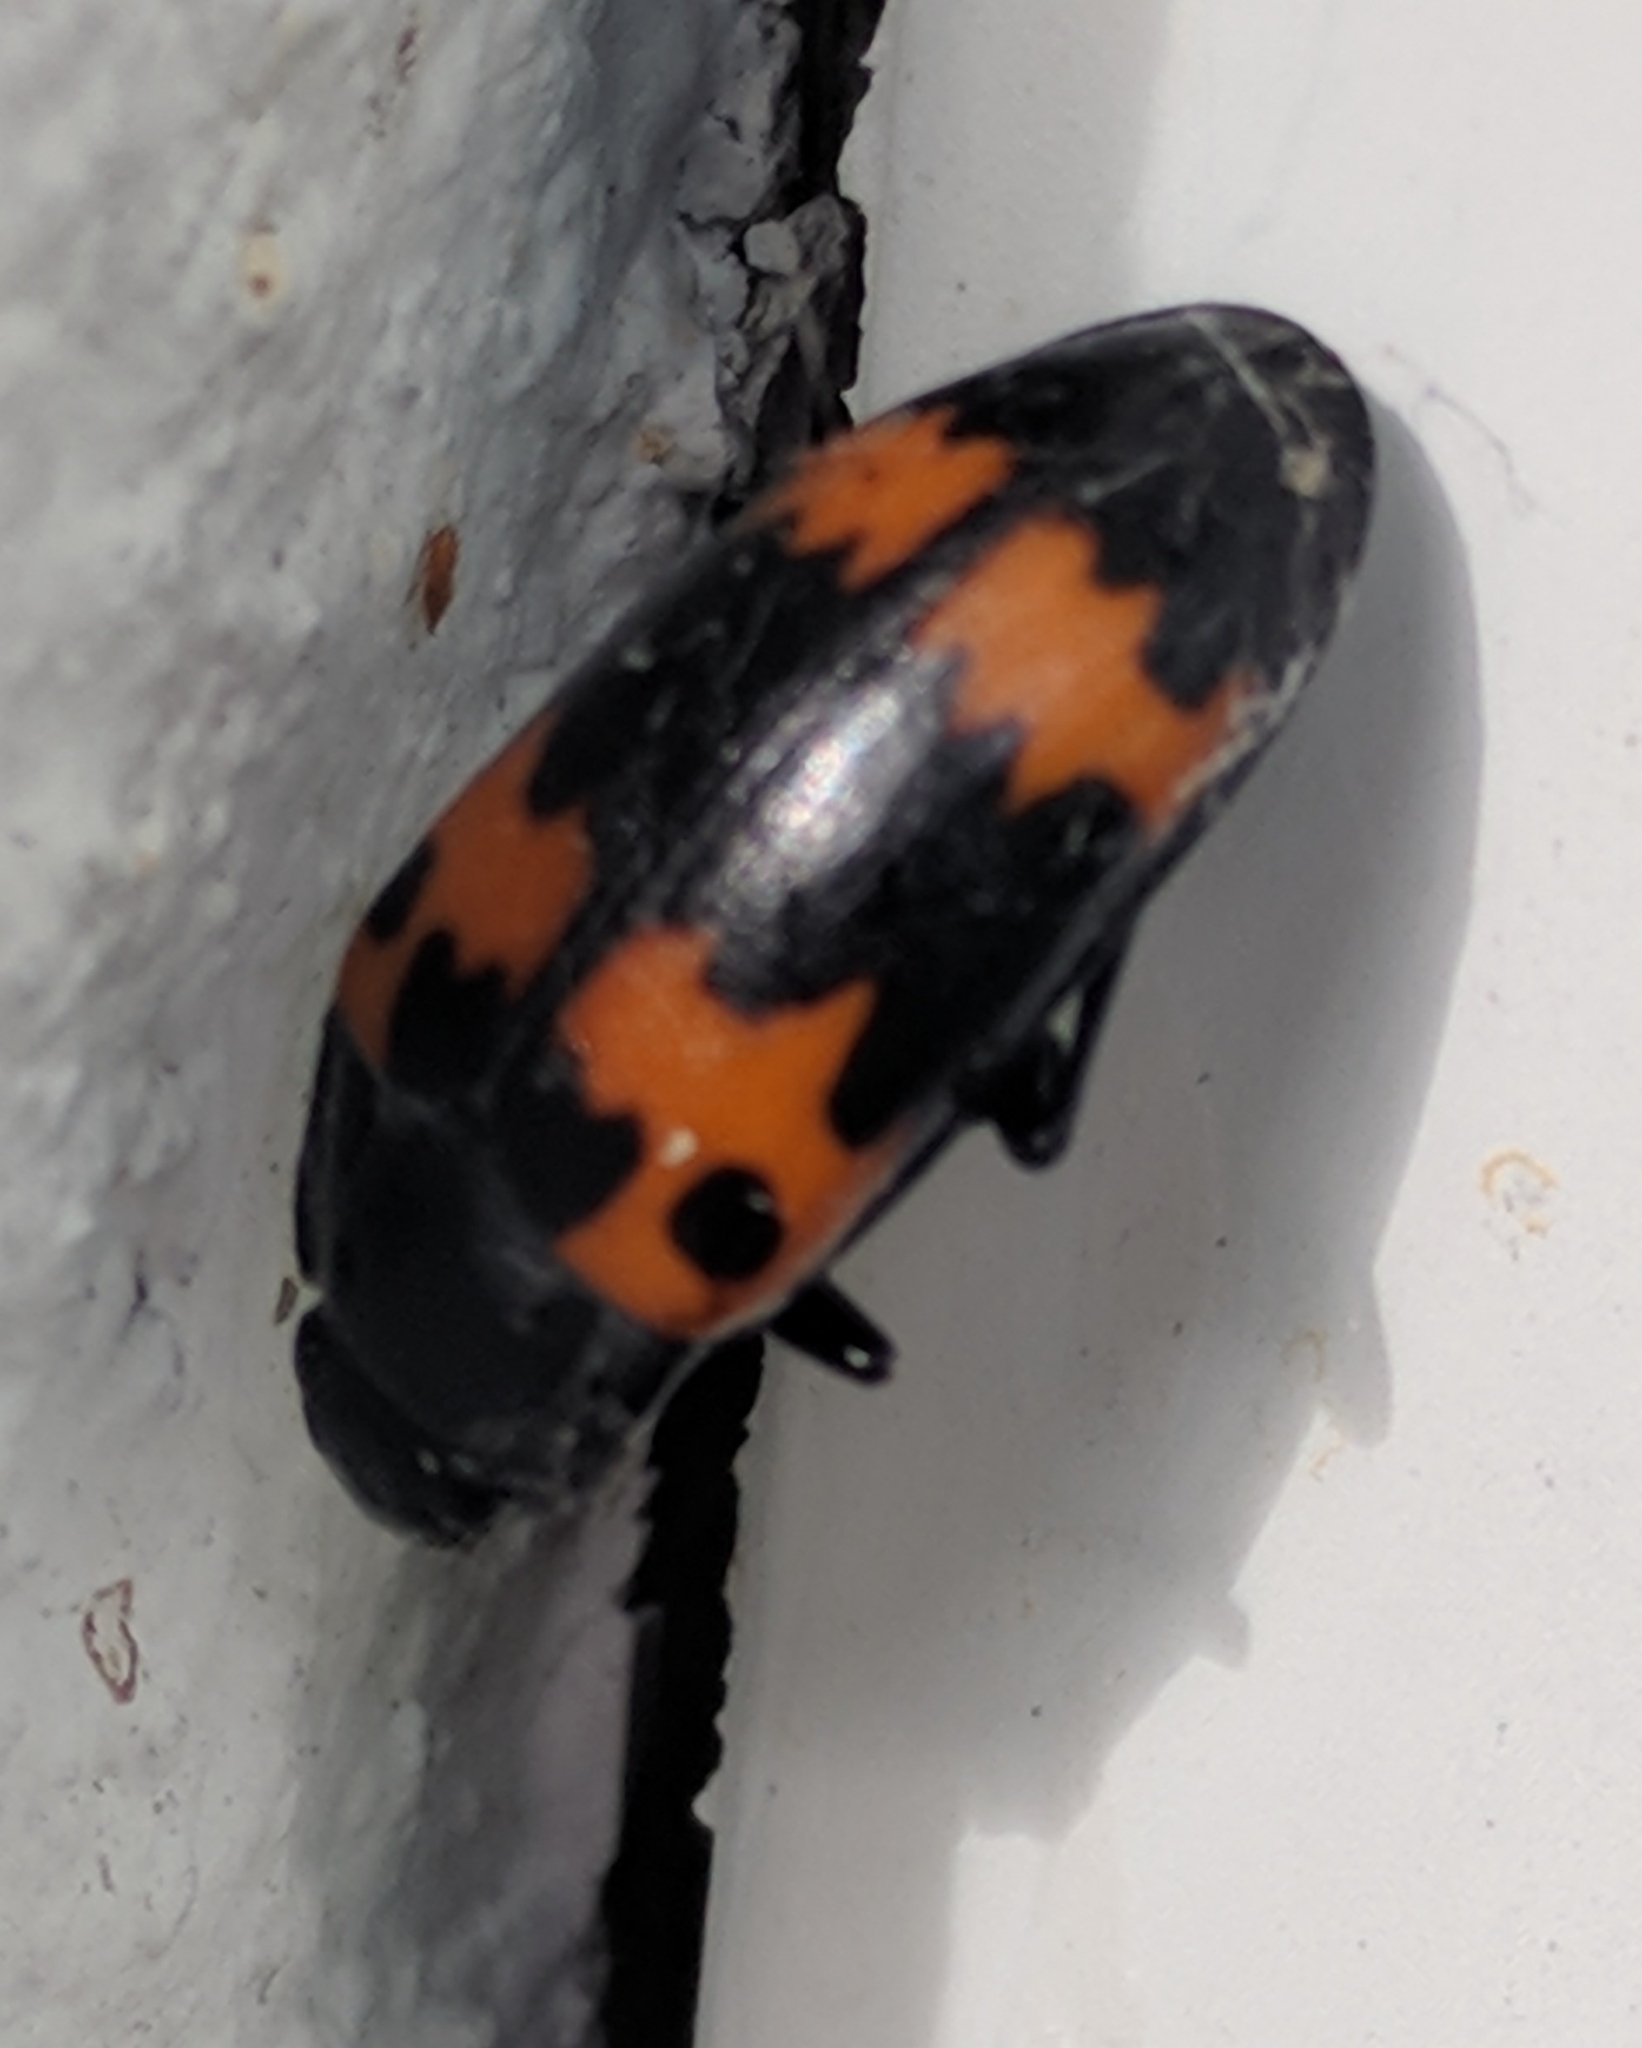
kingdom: Animalia
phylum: Arthropoda
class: Insecta
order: Coleoptera
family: Erotylidae
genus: Megalodacne
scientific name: Megalodacne fasciata
